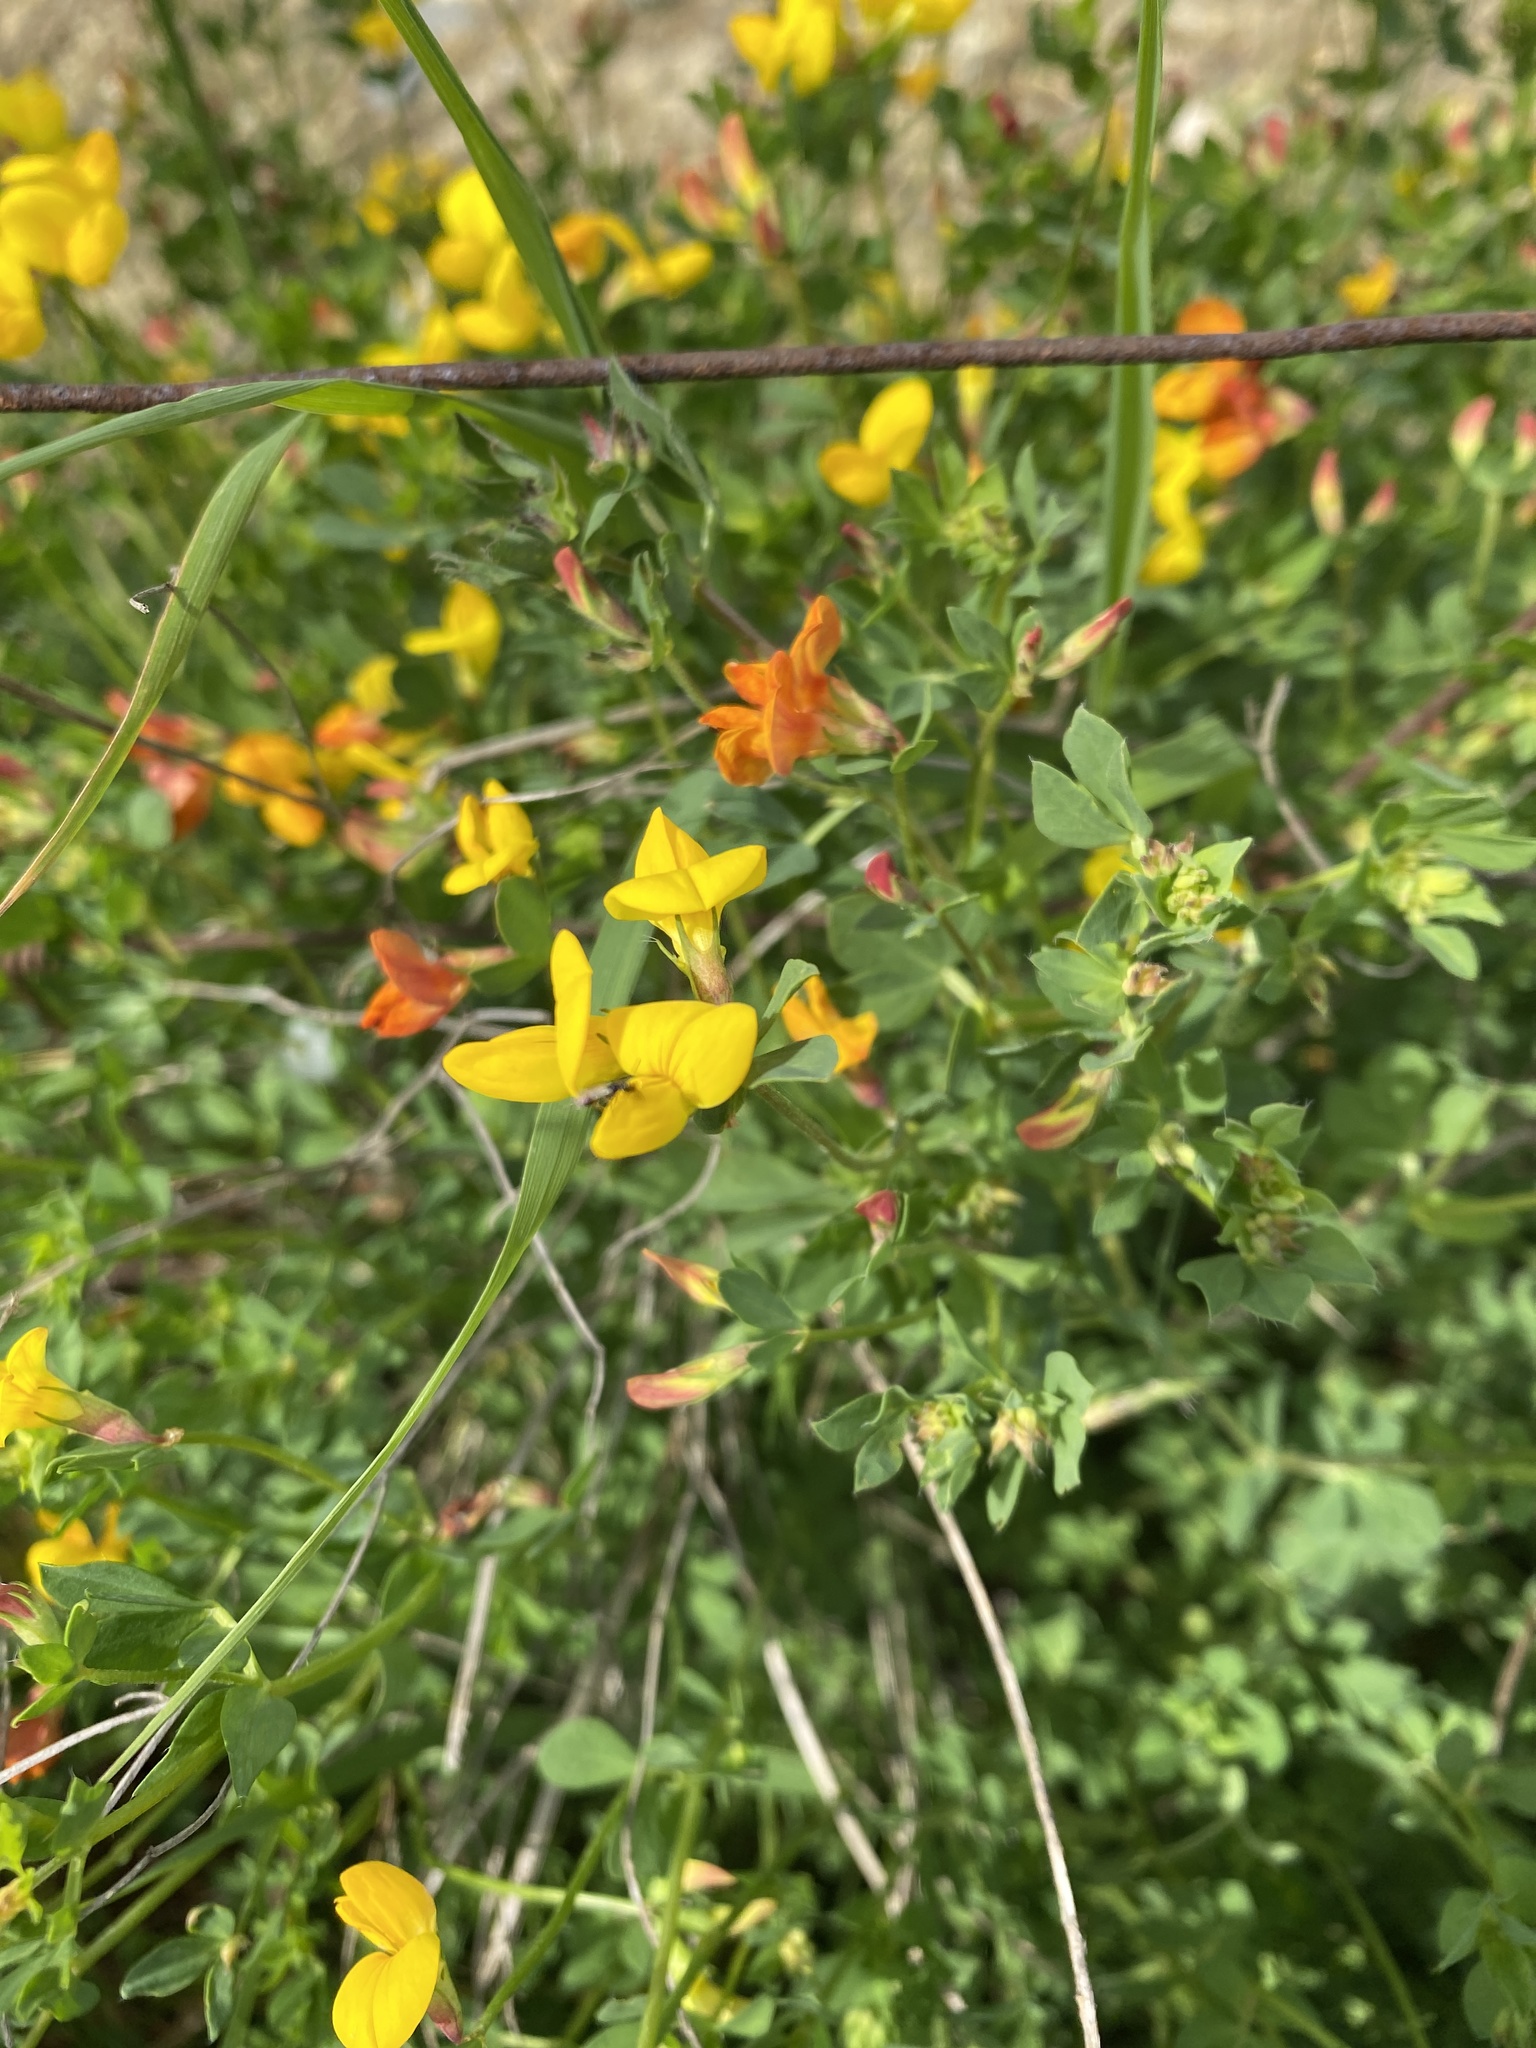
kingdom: Plantae
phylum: Tracheophyta
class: Magnoliopsida
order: Fabales
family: Fabaceae
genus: Lotus
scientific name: Lotus corniculatus
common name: Common bird's-foot-trefoil
